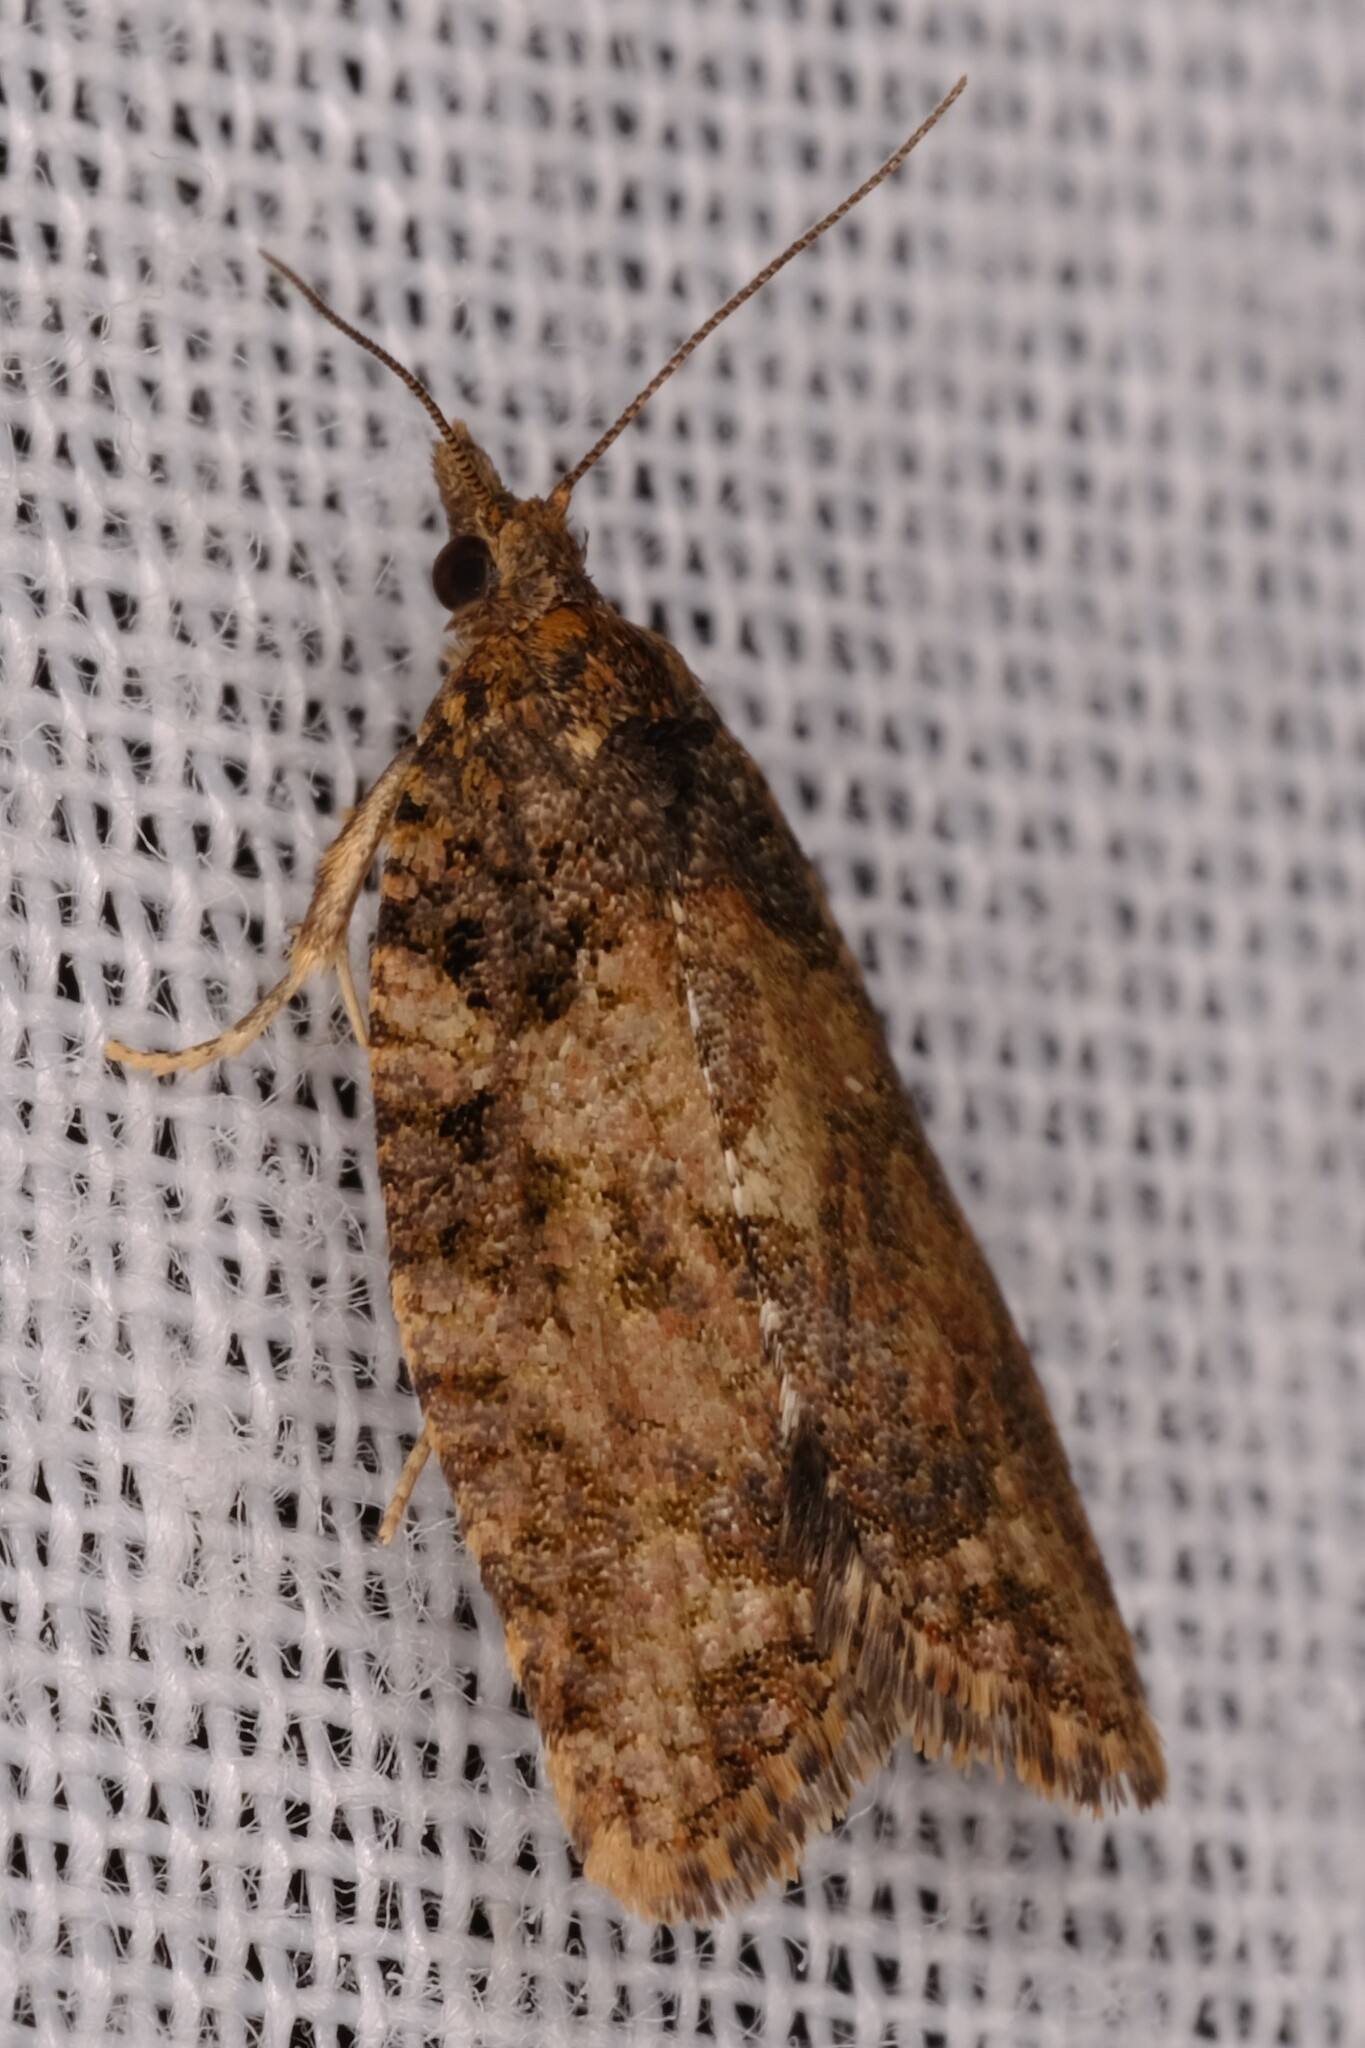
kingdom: Animalia
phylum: Arthropoda
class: Insecta
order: Lepidoptera
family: Tortricidae
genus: Capua
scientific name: Capua dura
